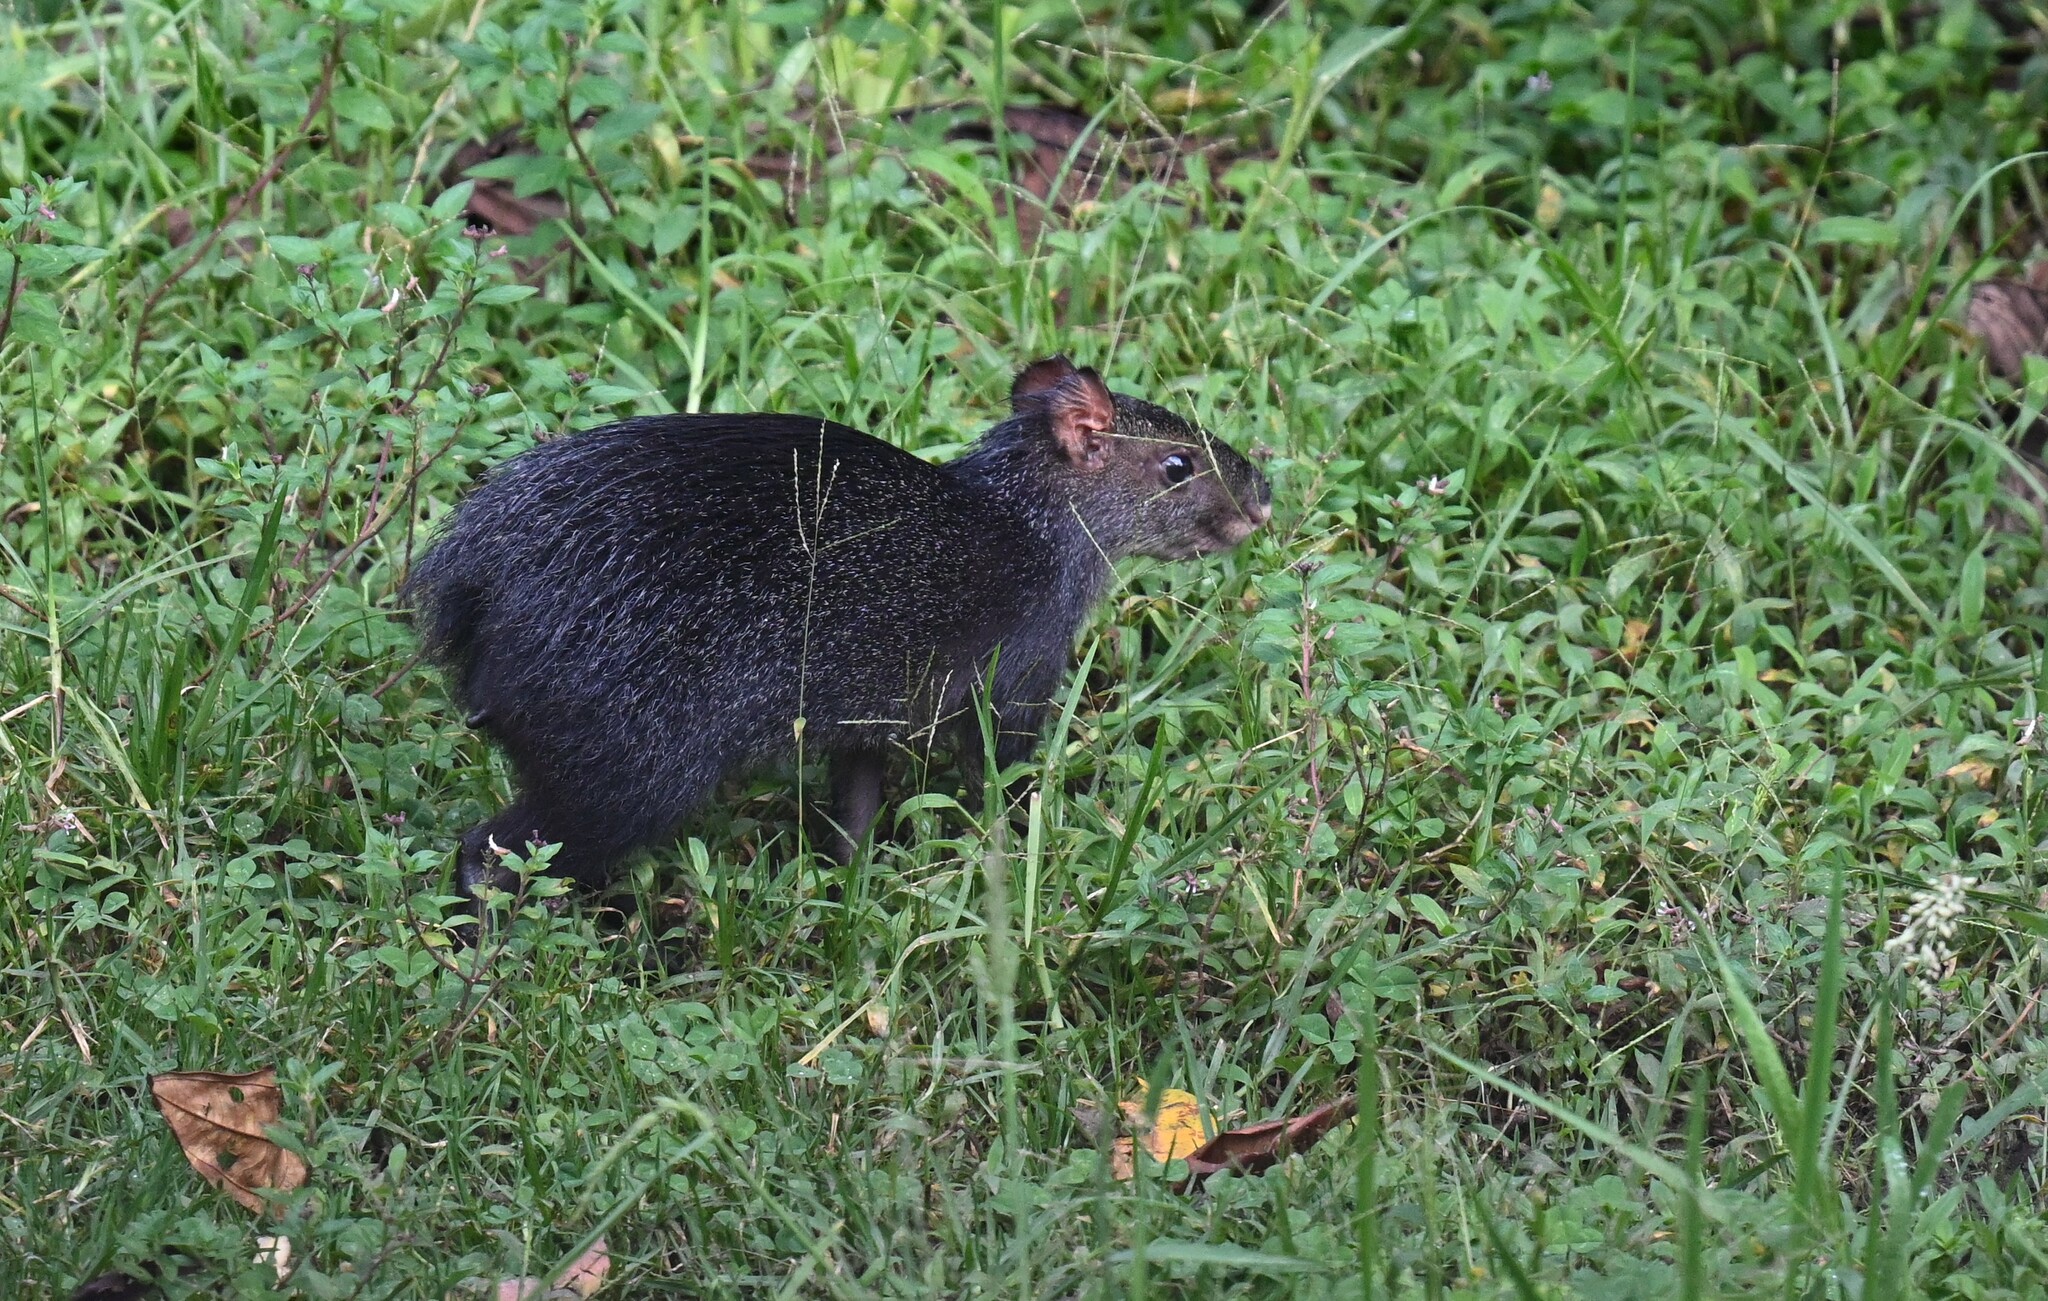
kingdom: Animalia
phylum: Chordata
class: Mammalia
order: Rodentia
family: Dasyproctidae
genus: Dasyprocta
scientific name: Dasyprocta fuliginosa
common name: Black agouti
